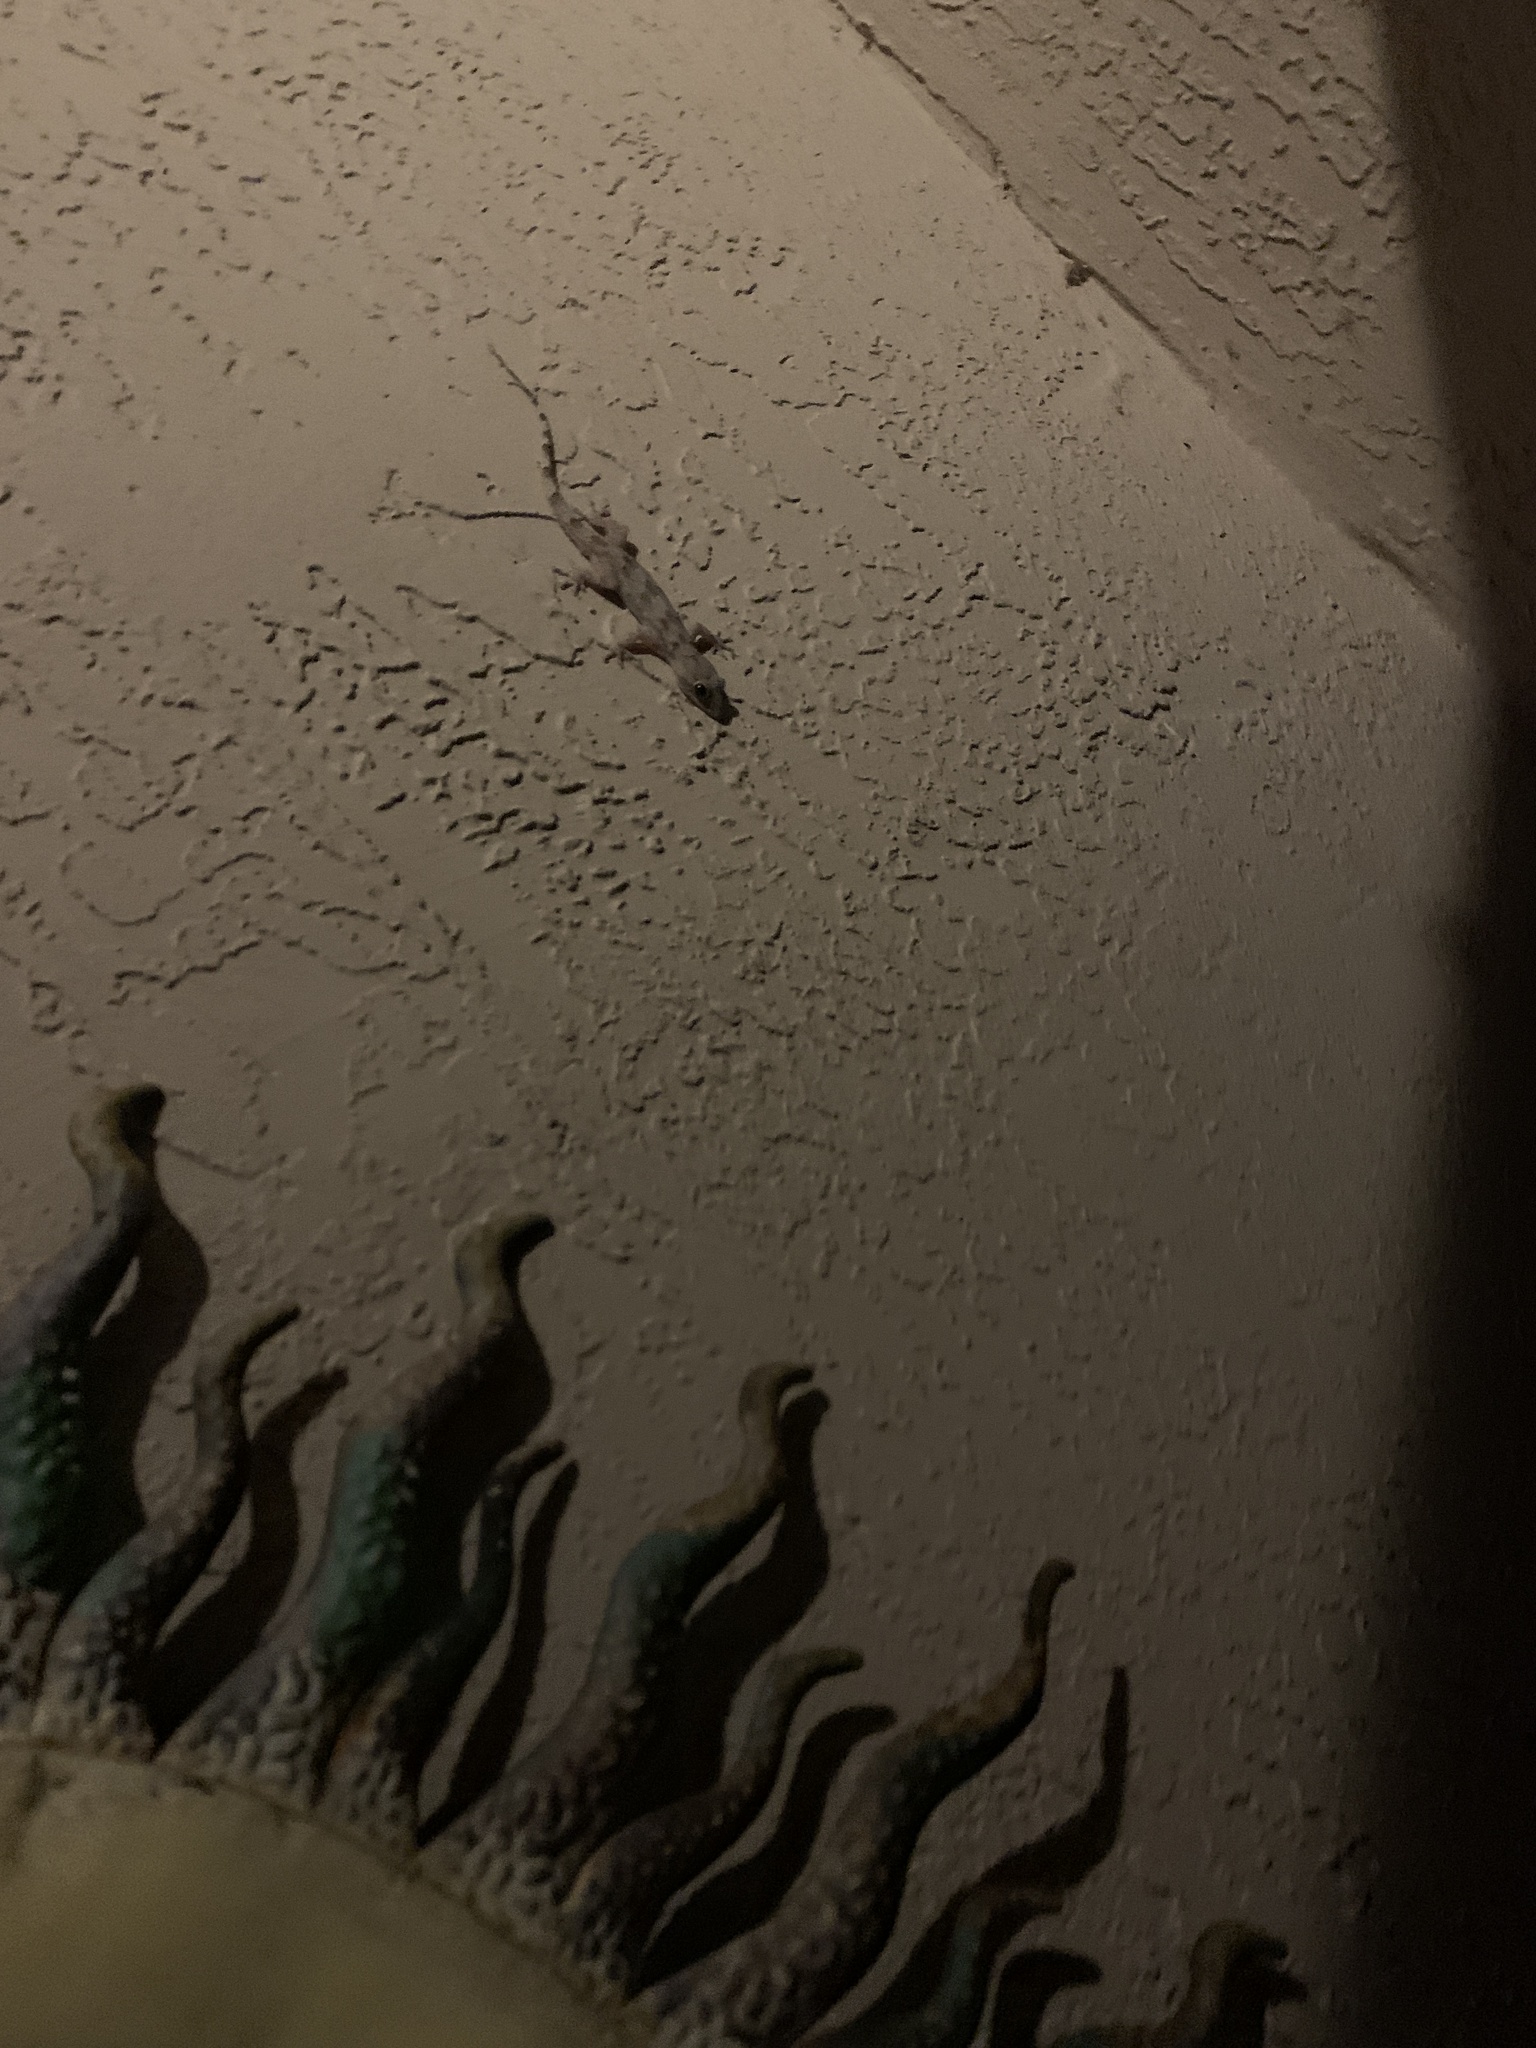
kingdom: Animalia
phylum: Chordata
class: Squamata
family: Gekkonidae
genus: Hemidactylus
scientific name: Hemidactylus mabouia
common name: House gecko
